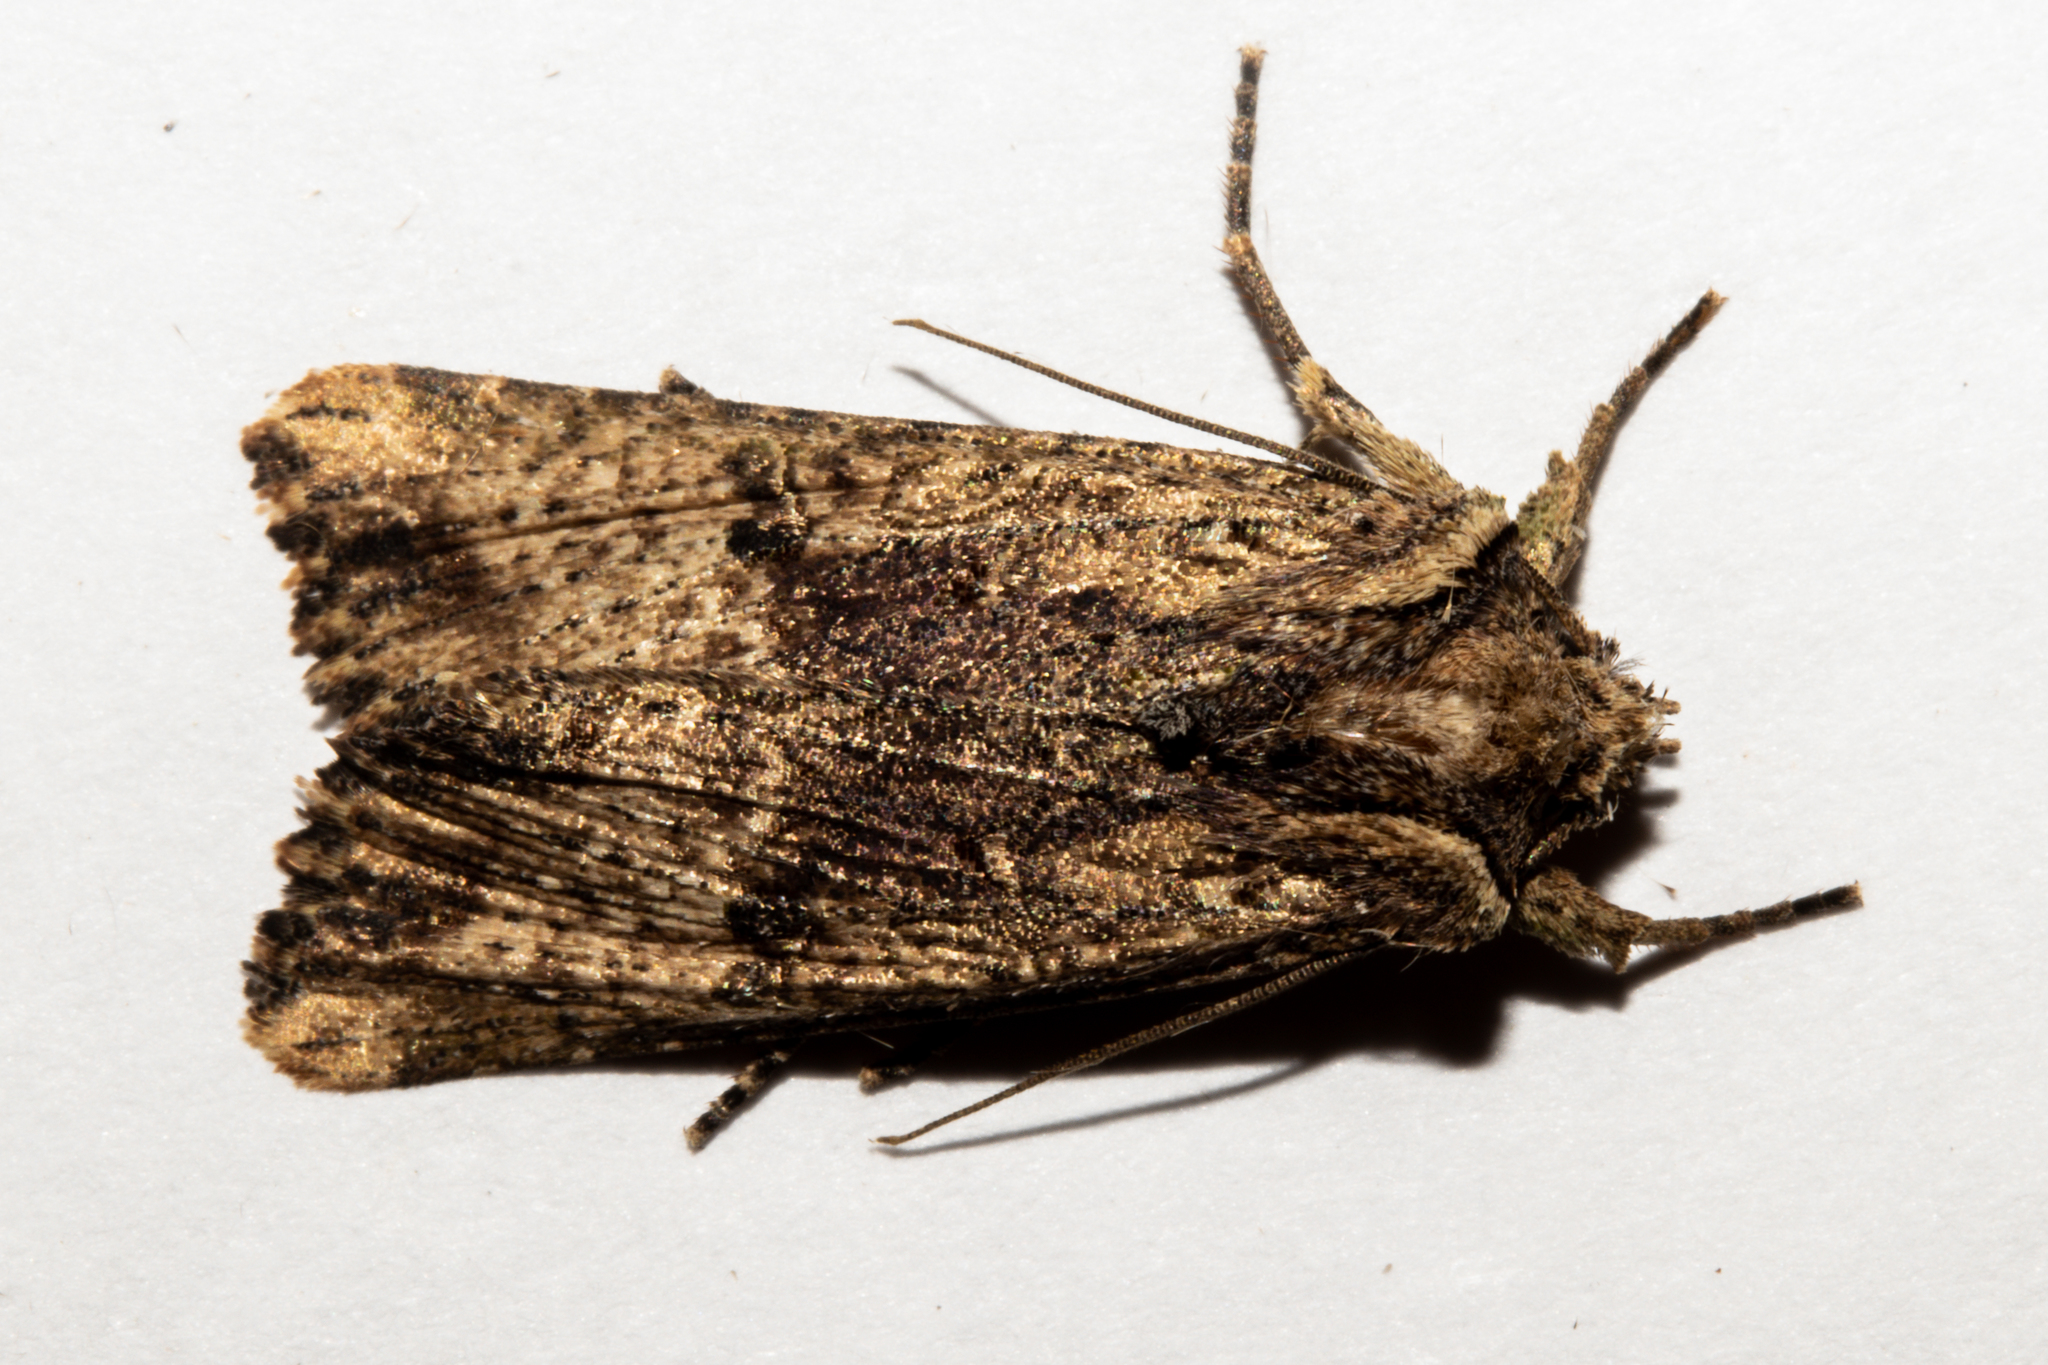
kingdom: Animalia
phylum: Arthropoda
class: Insecta
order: Lepidoptera
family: Noctuidae
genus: Meterana
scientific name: Meterana coeleno
